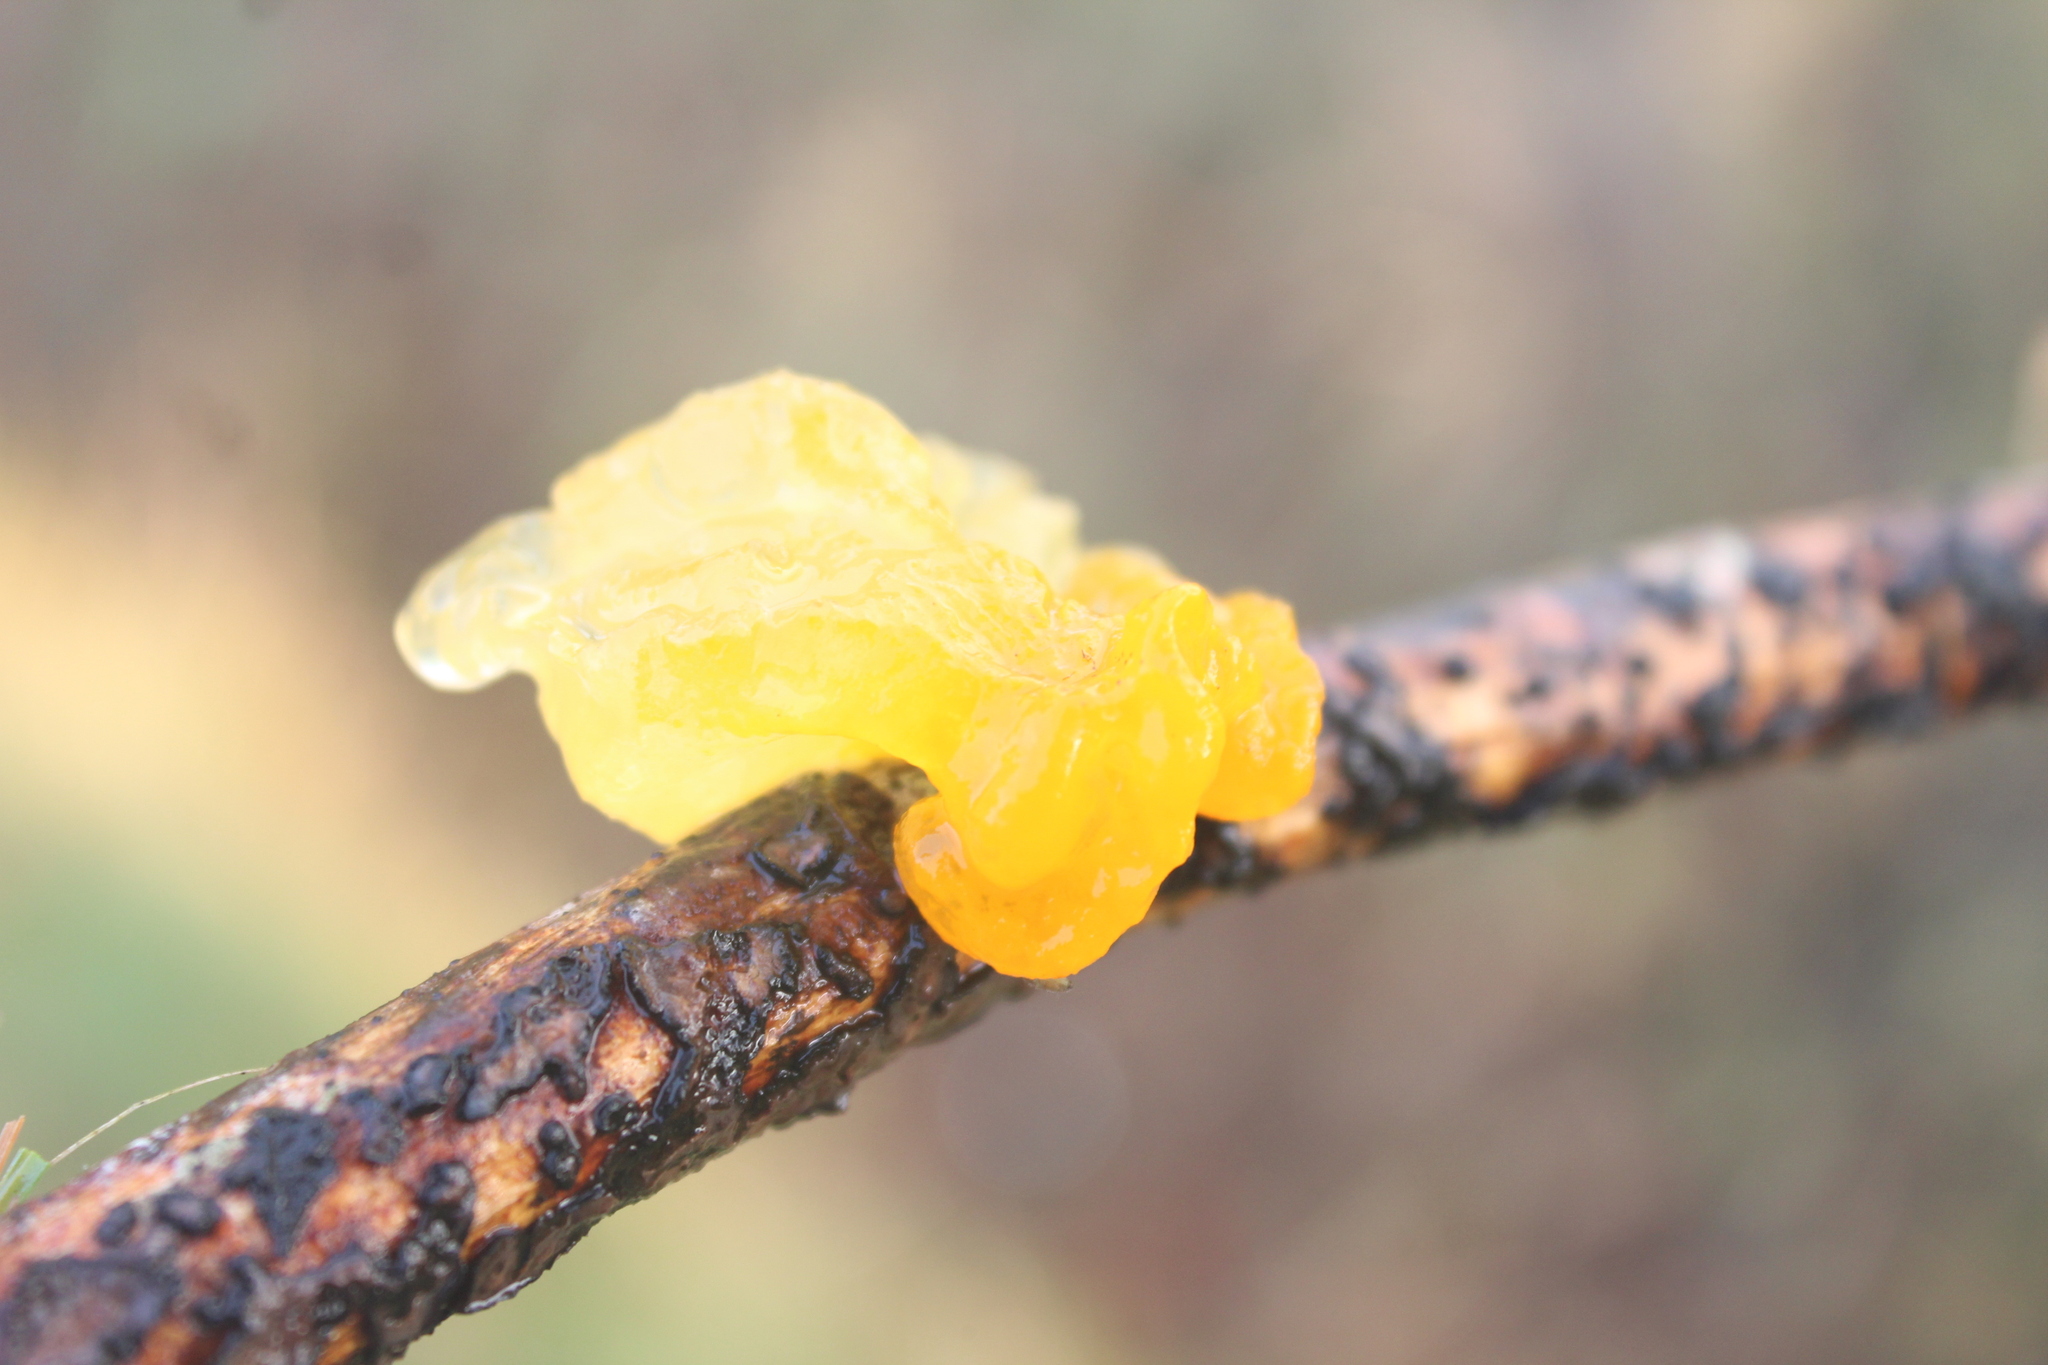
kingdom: Fungi
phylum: Basidiomycota
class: Tremellomycetes
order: Tremellales
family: Tremellaceae
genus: Tremella
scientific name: Tremella mesenterica
